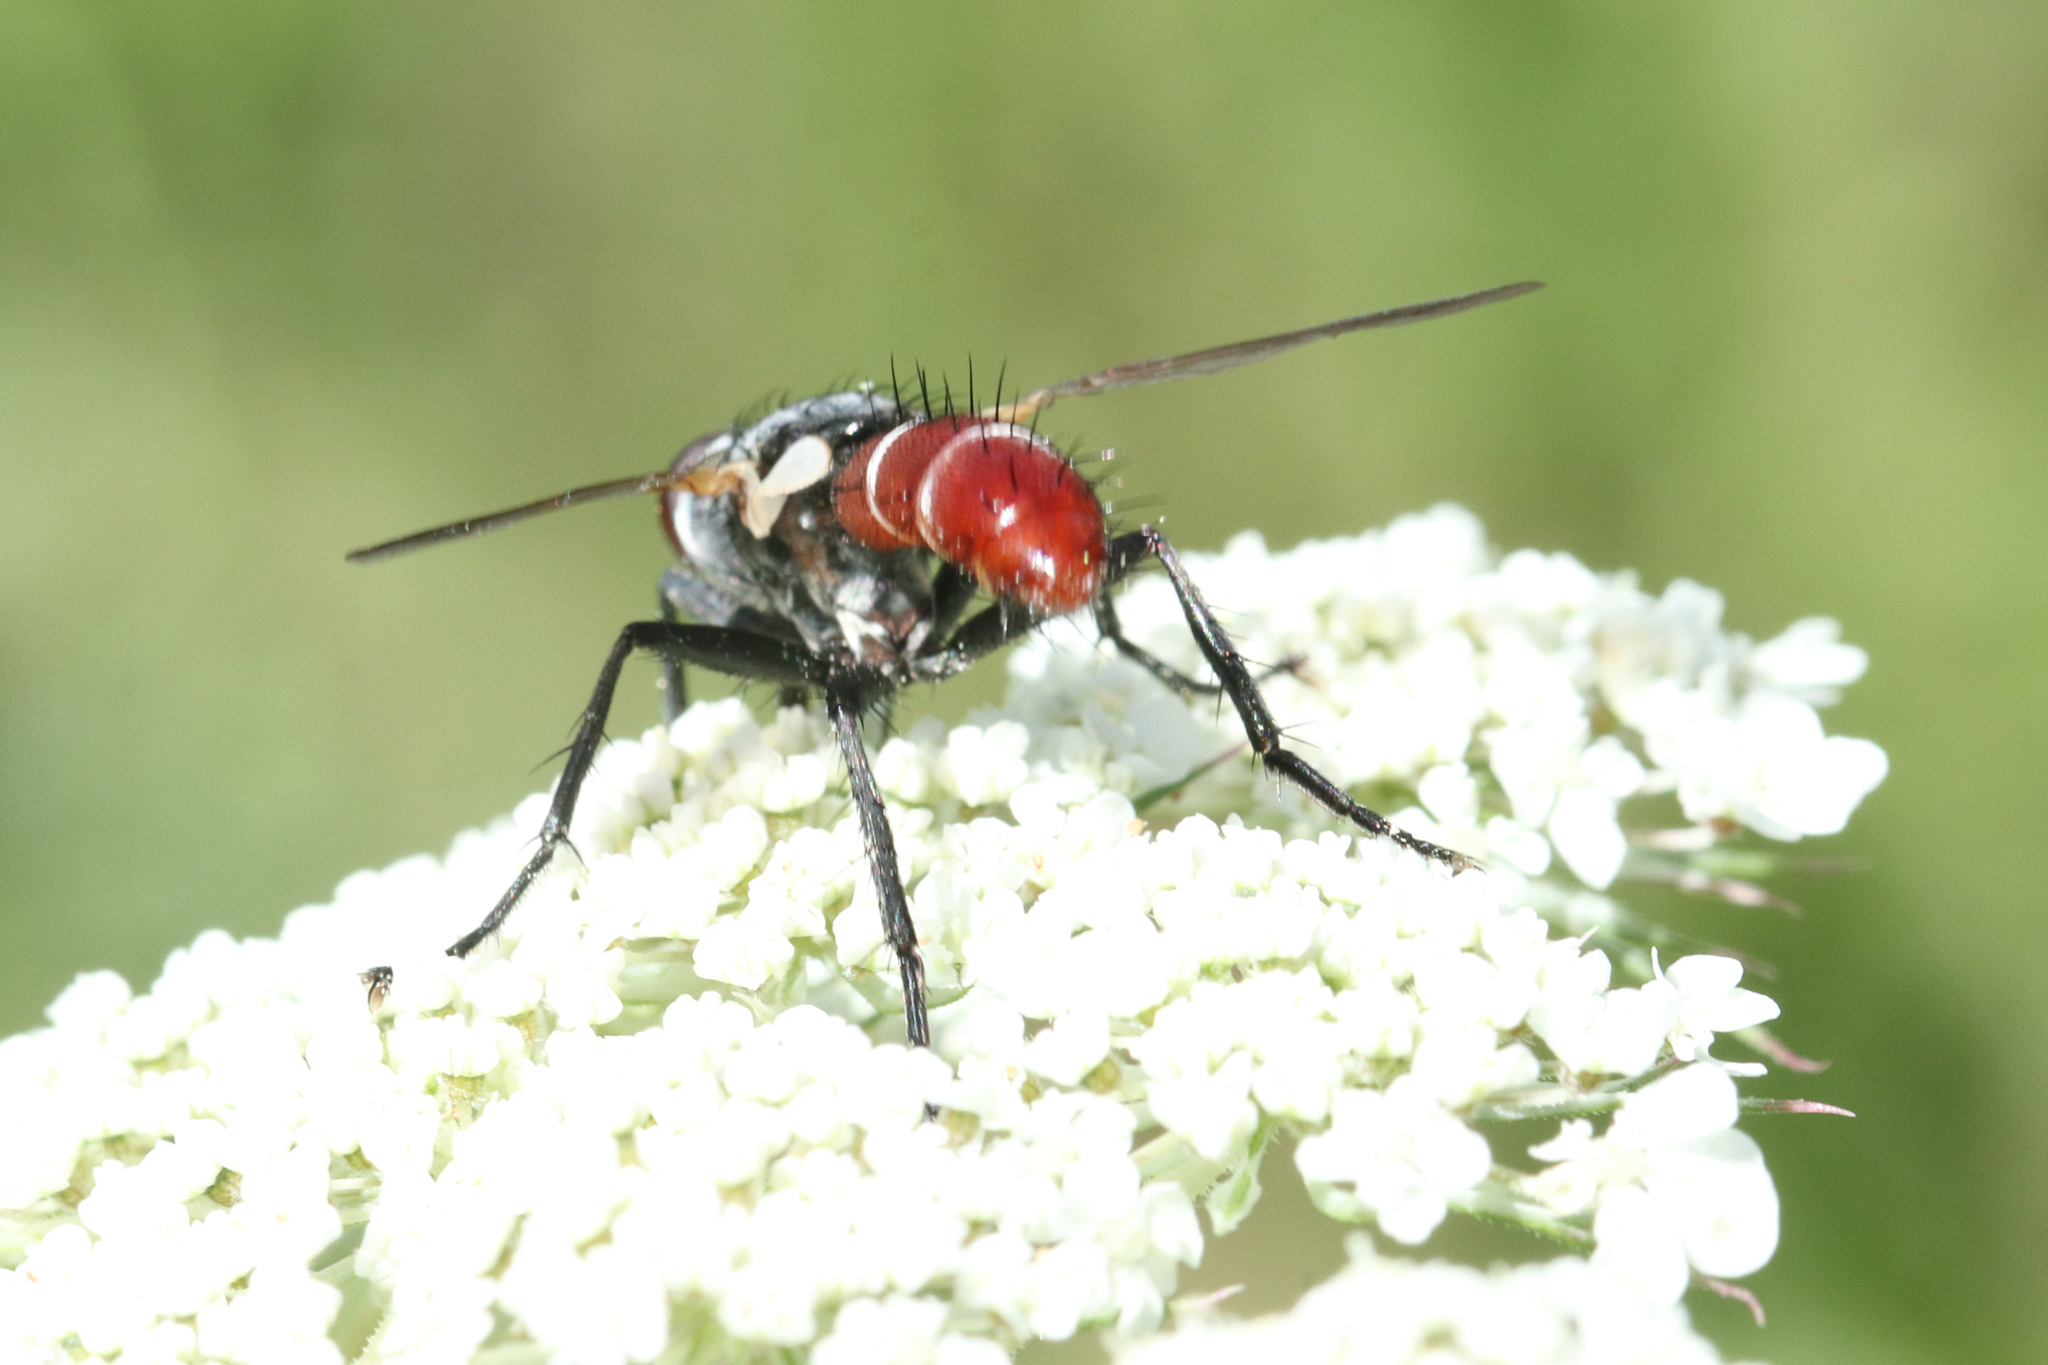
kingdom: Animalia
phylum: Arthropoda
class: Insecta
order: Diptera
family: Tachinidae
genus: Cylindromyia
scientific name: Cylindromyia bicolor
